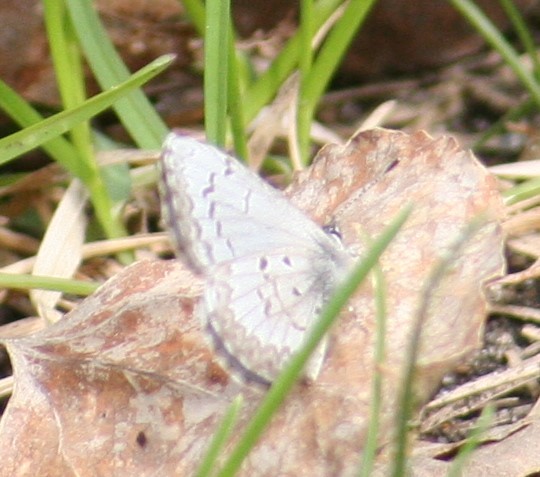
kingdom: Animalia
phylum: Arthropoda
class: Insecta
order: Lepidoptera
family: Lycaenidae
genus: Celastrina
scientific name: Celastrina lucia
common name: Lucia azure
